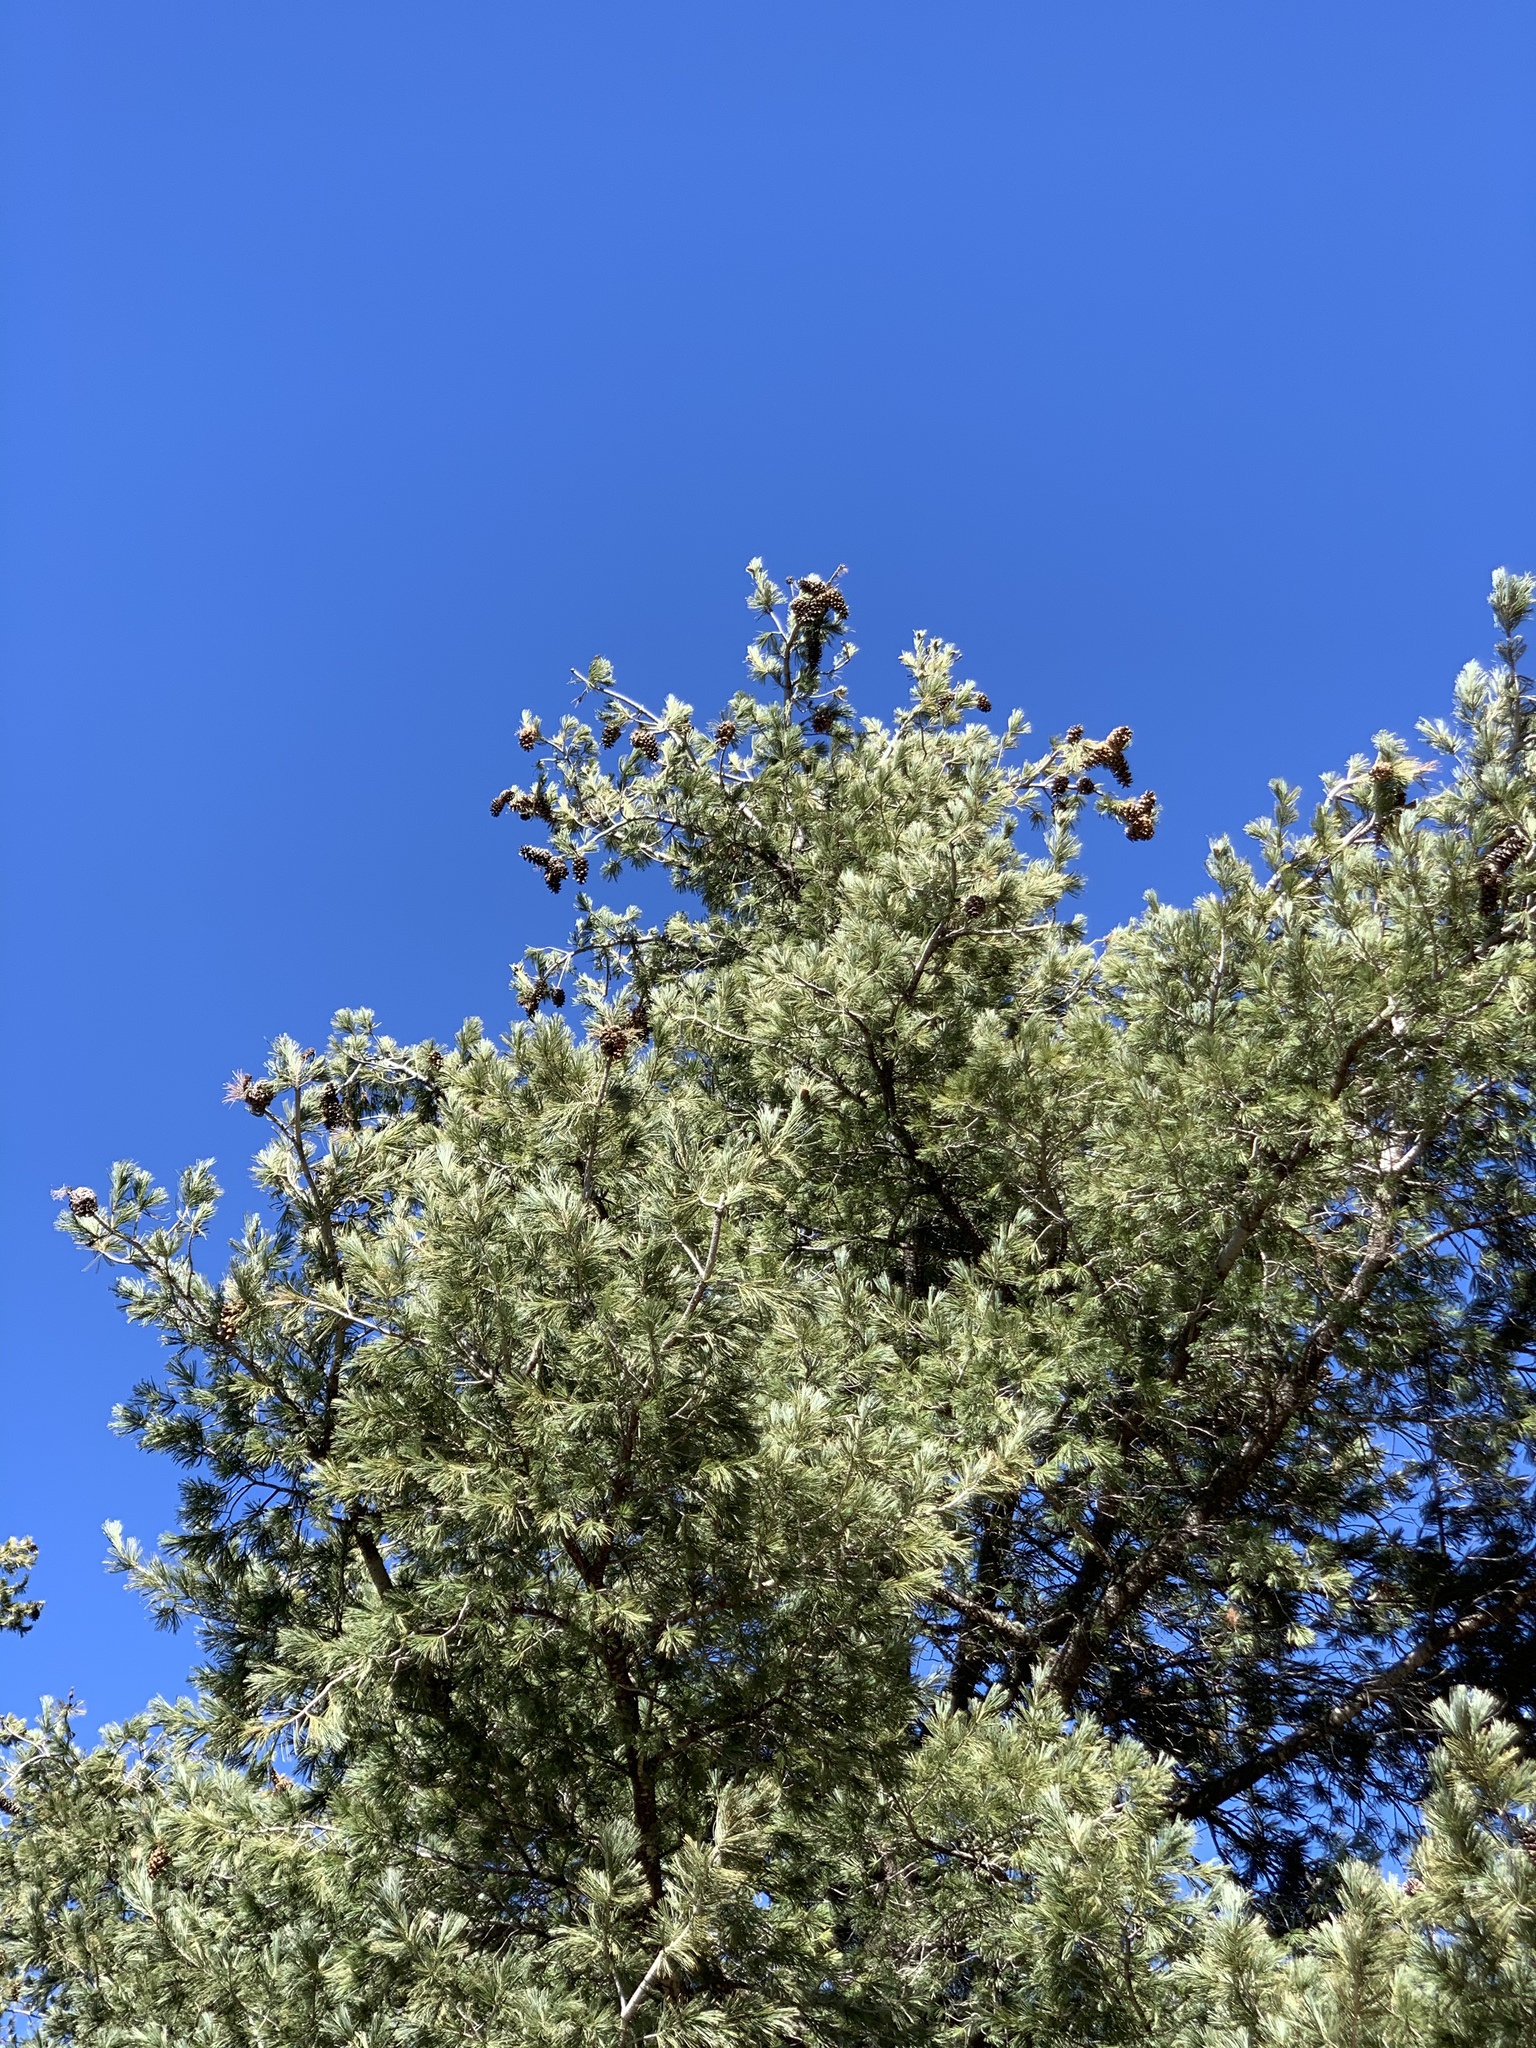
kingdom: Plantae
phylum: Tracheophyta
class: Pinopsida
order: Pinales
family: Pinaceae
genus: Pinus
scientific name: Pinus strobiformis
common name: Southwestern white pine
